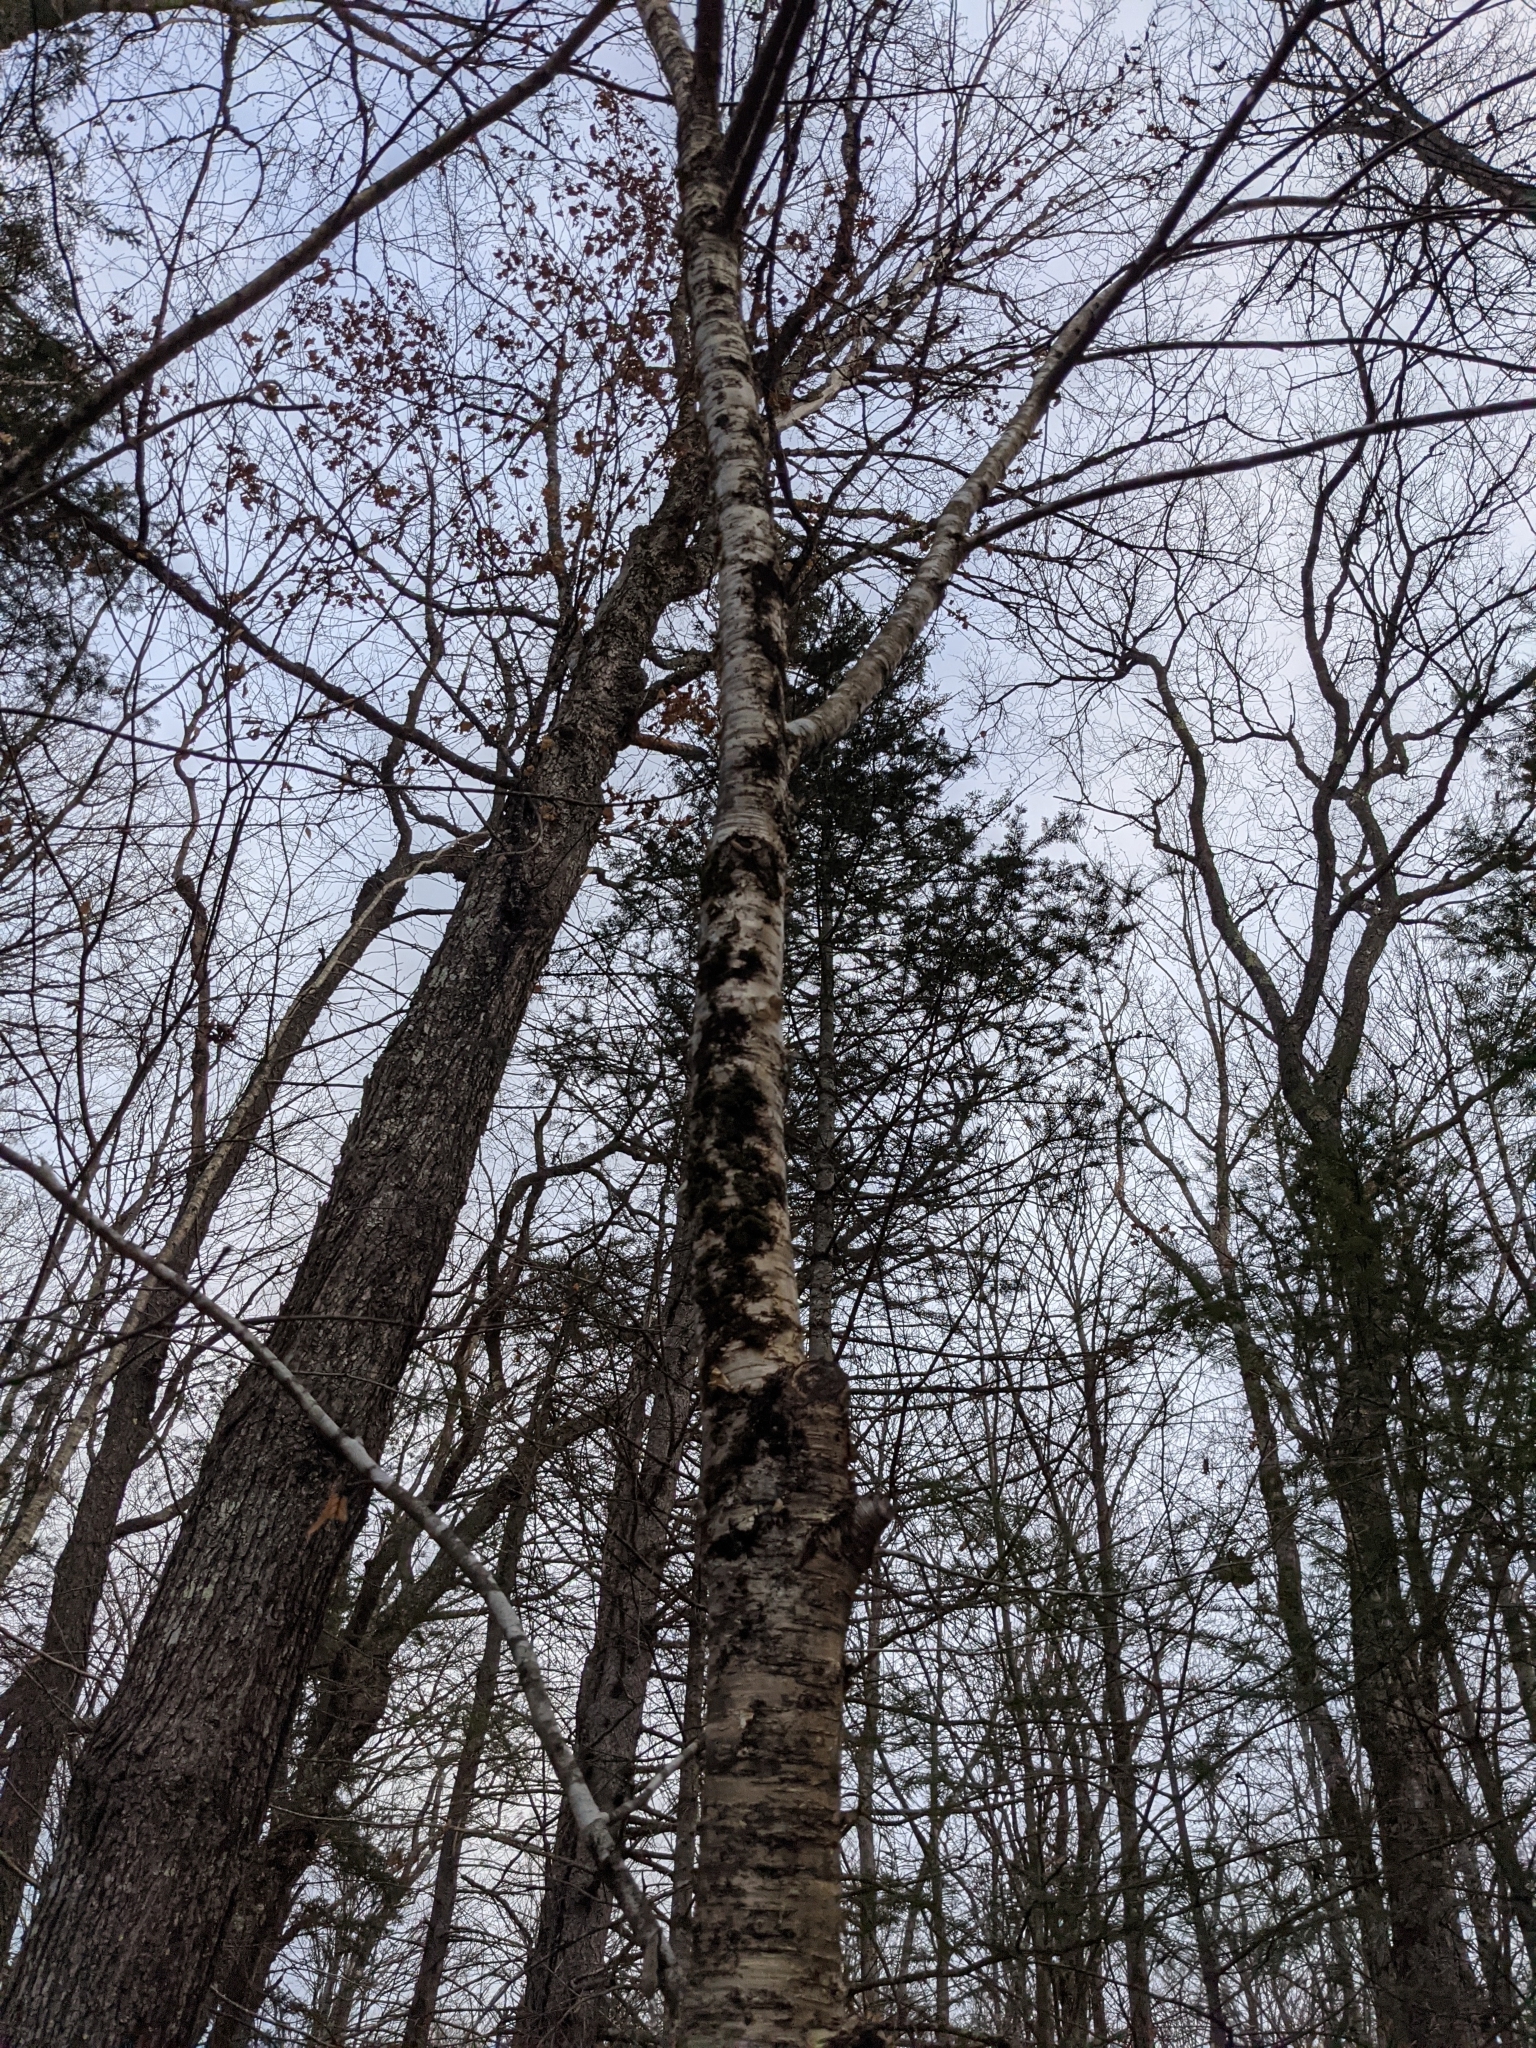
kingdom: Plantae
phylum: Tracheophyta
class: Magnoliopsida
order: Fagales
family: Betulaceae
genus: Betula
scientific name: Betula alleghaniensis
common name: Yellow birch
